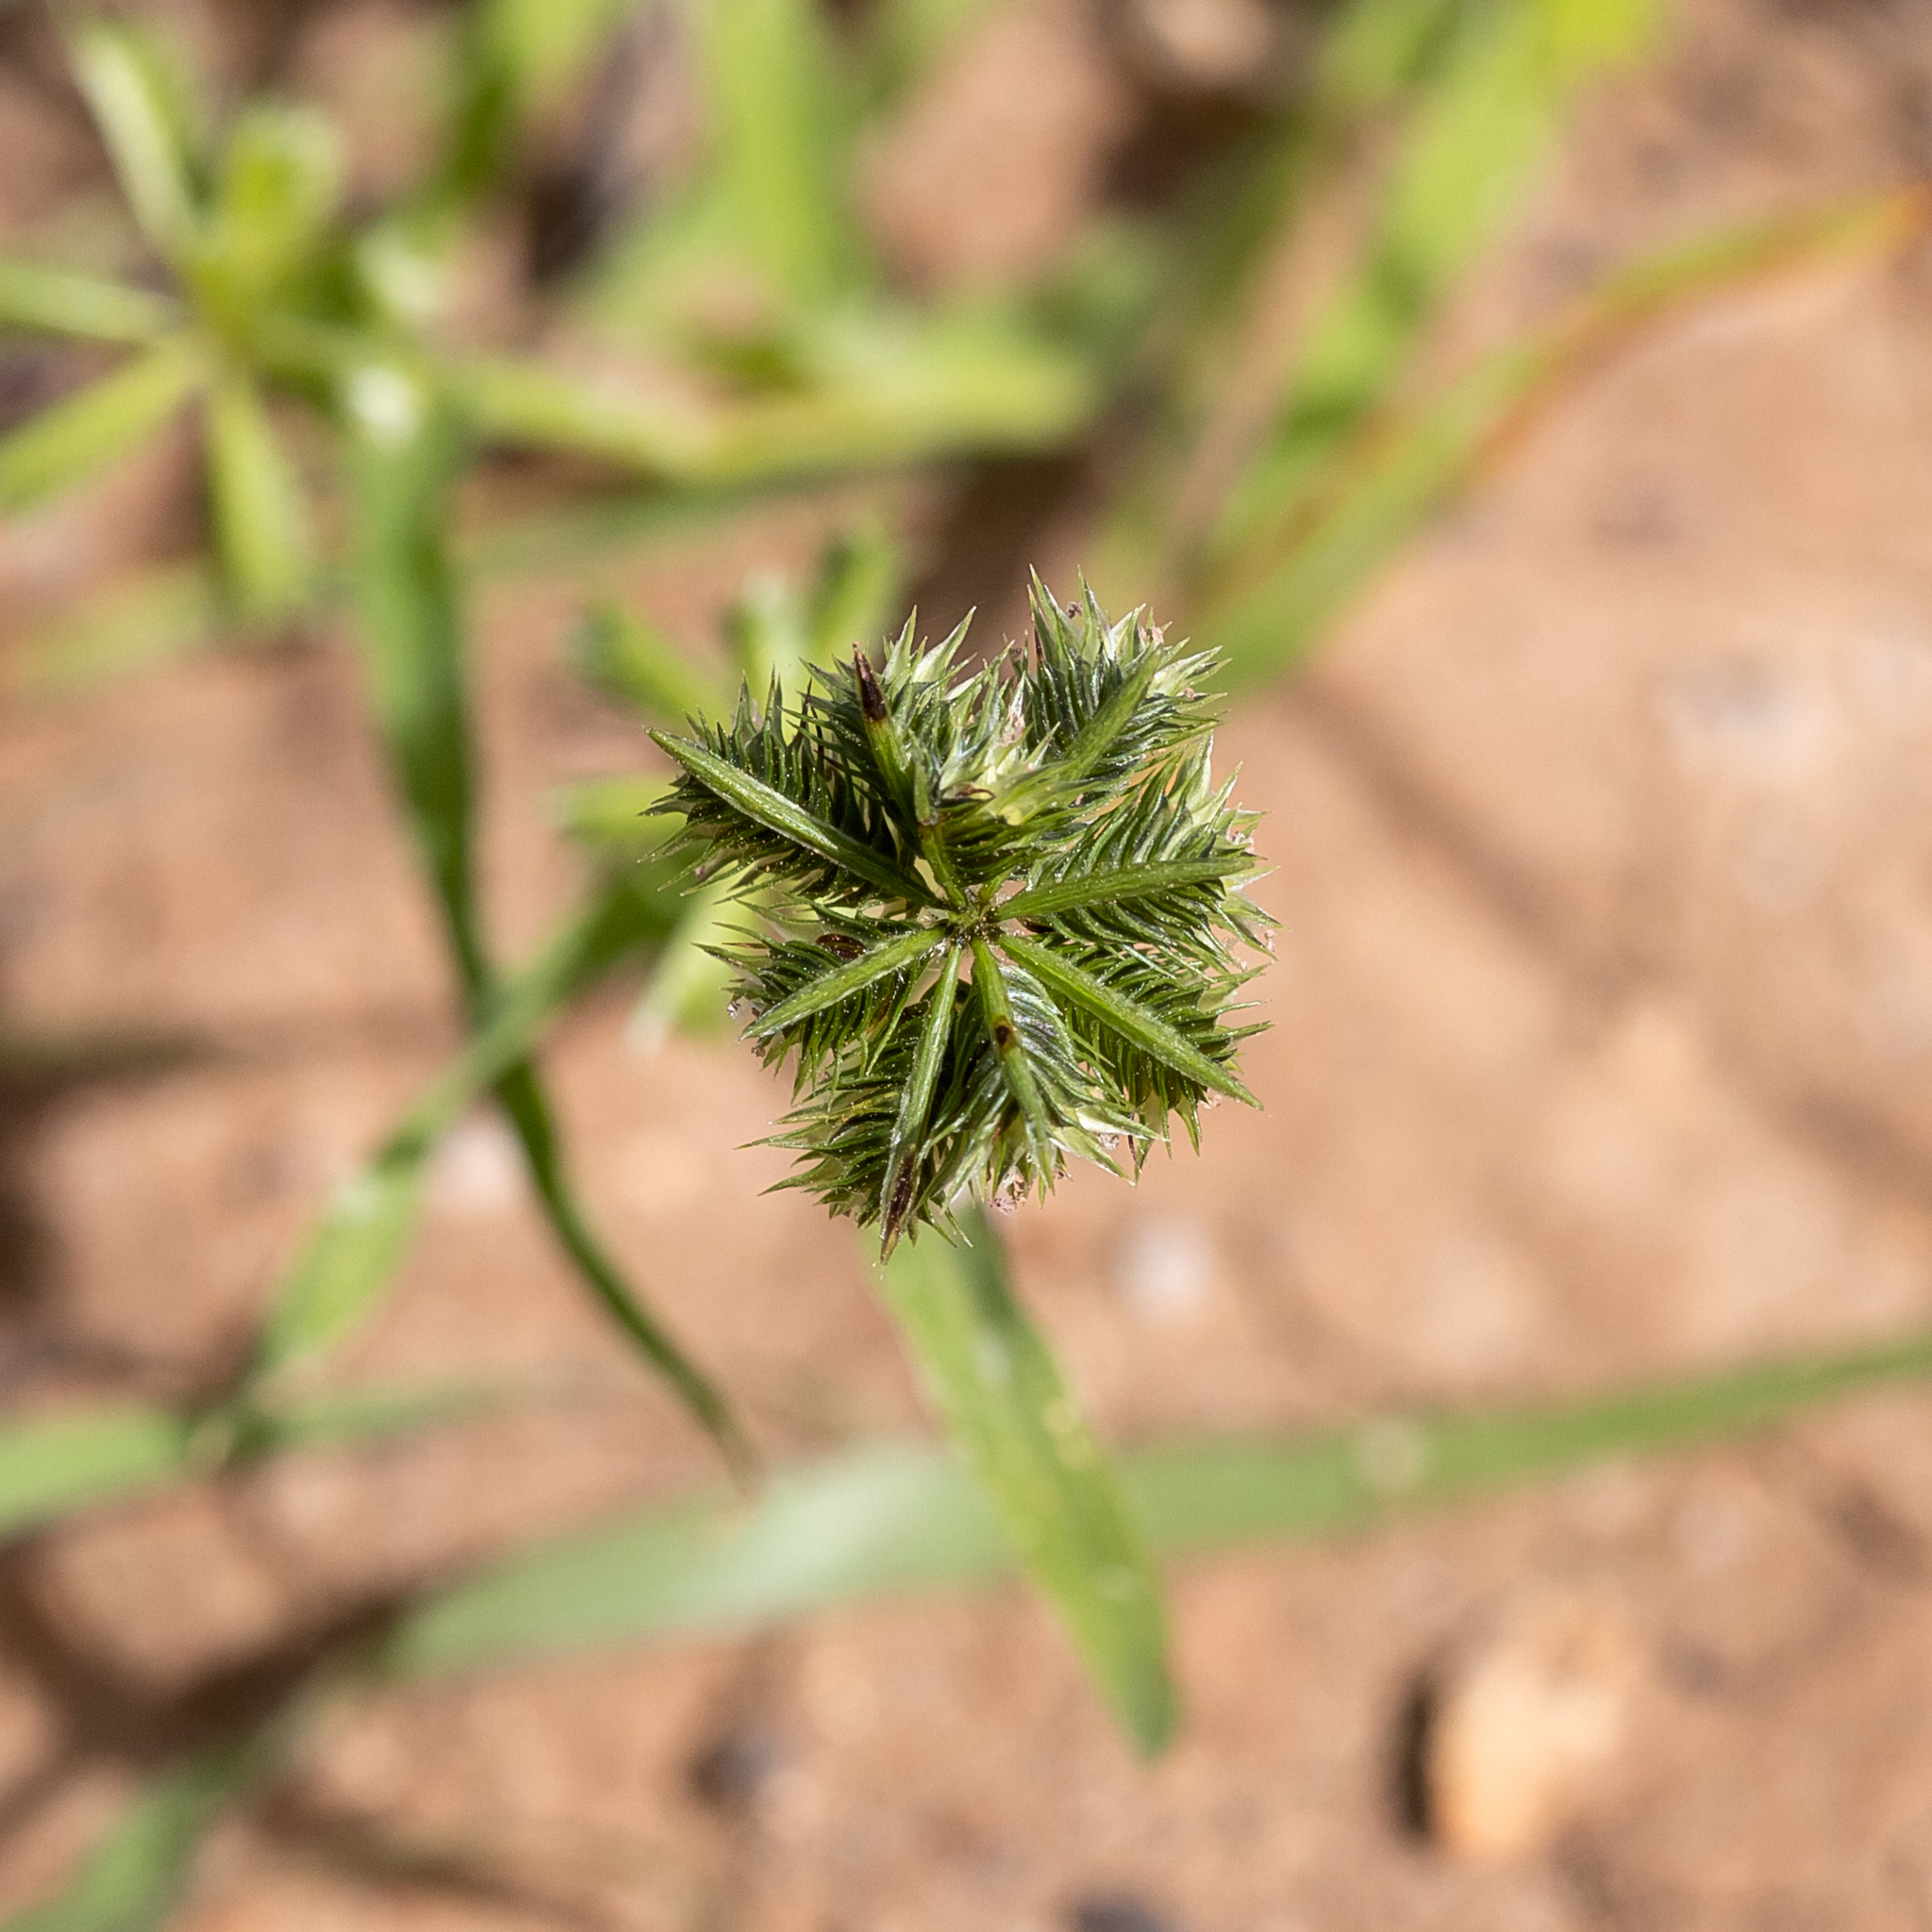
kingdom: Plantae
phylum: Tracheophyta
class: Liliopsida
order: Poales
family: Poaceae
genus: Dactyloctenium
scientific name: Dactyloctenium radulans
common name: Button-grass
